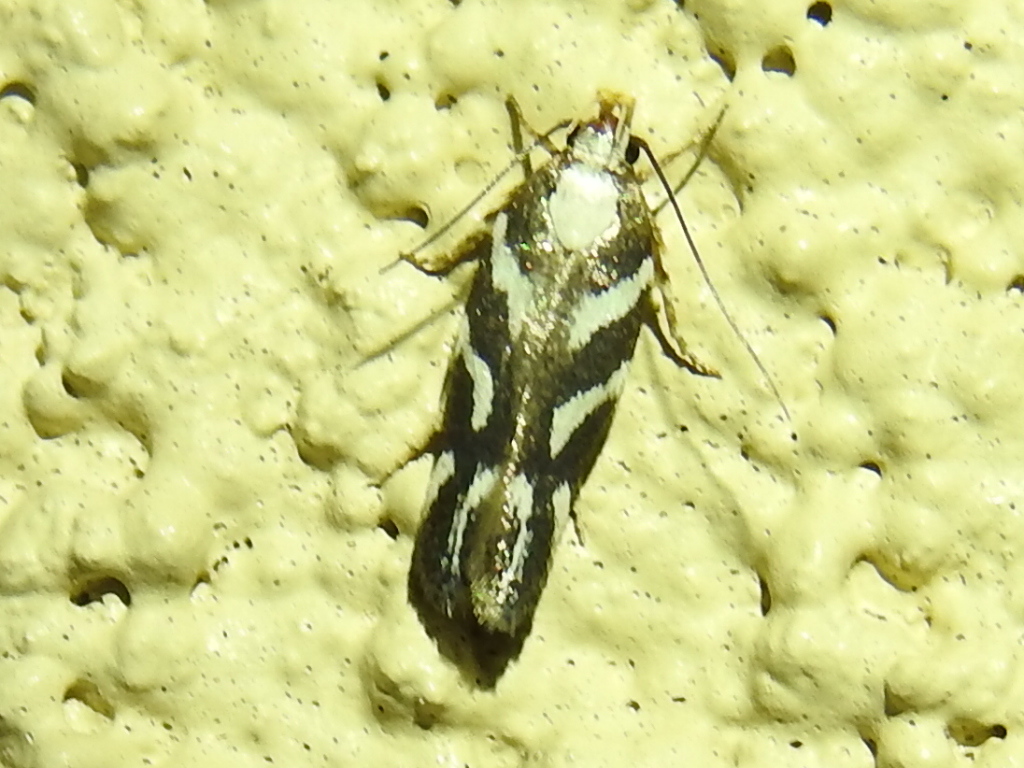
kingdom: Animalia
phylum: Arthropoda
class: Insecta
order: Lepidoptera
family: Gelechiidae
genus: Filatima
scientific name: Filatima albilorella
